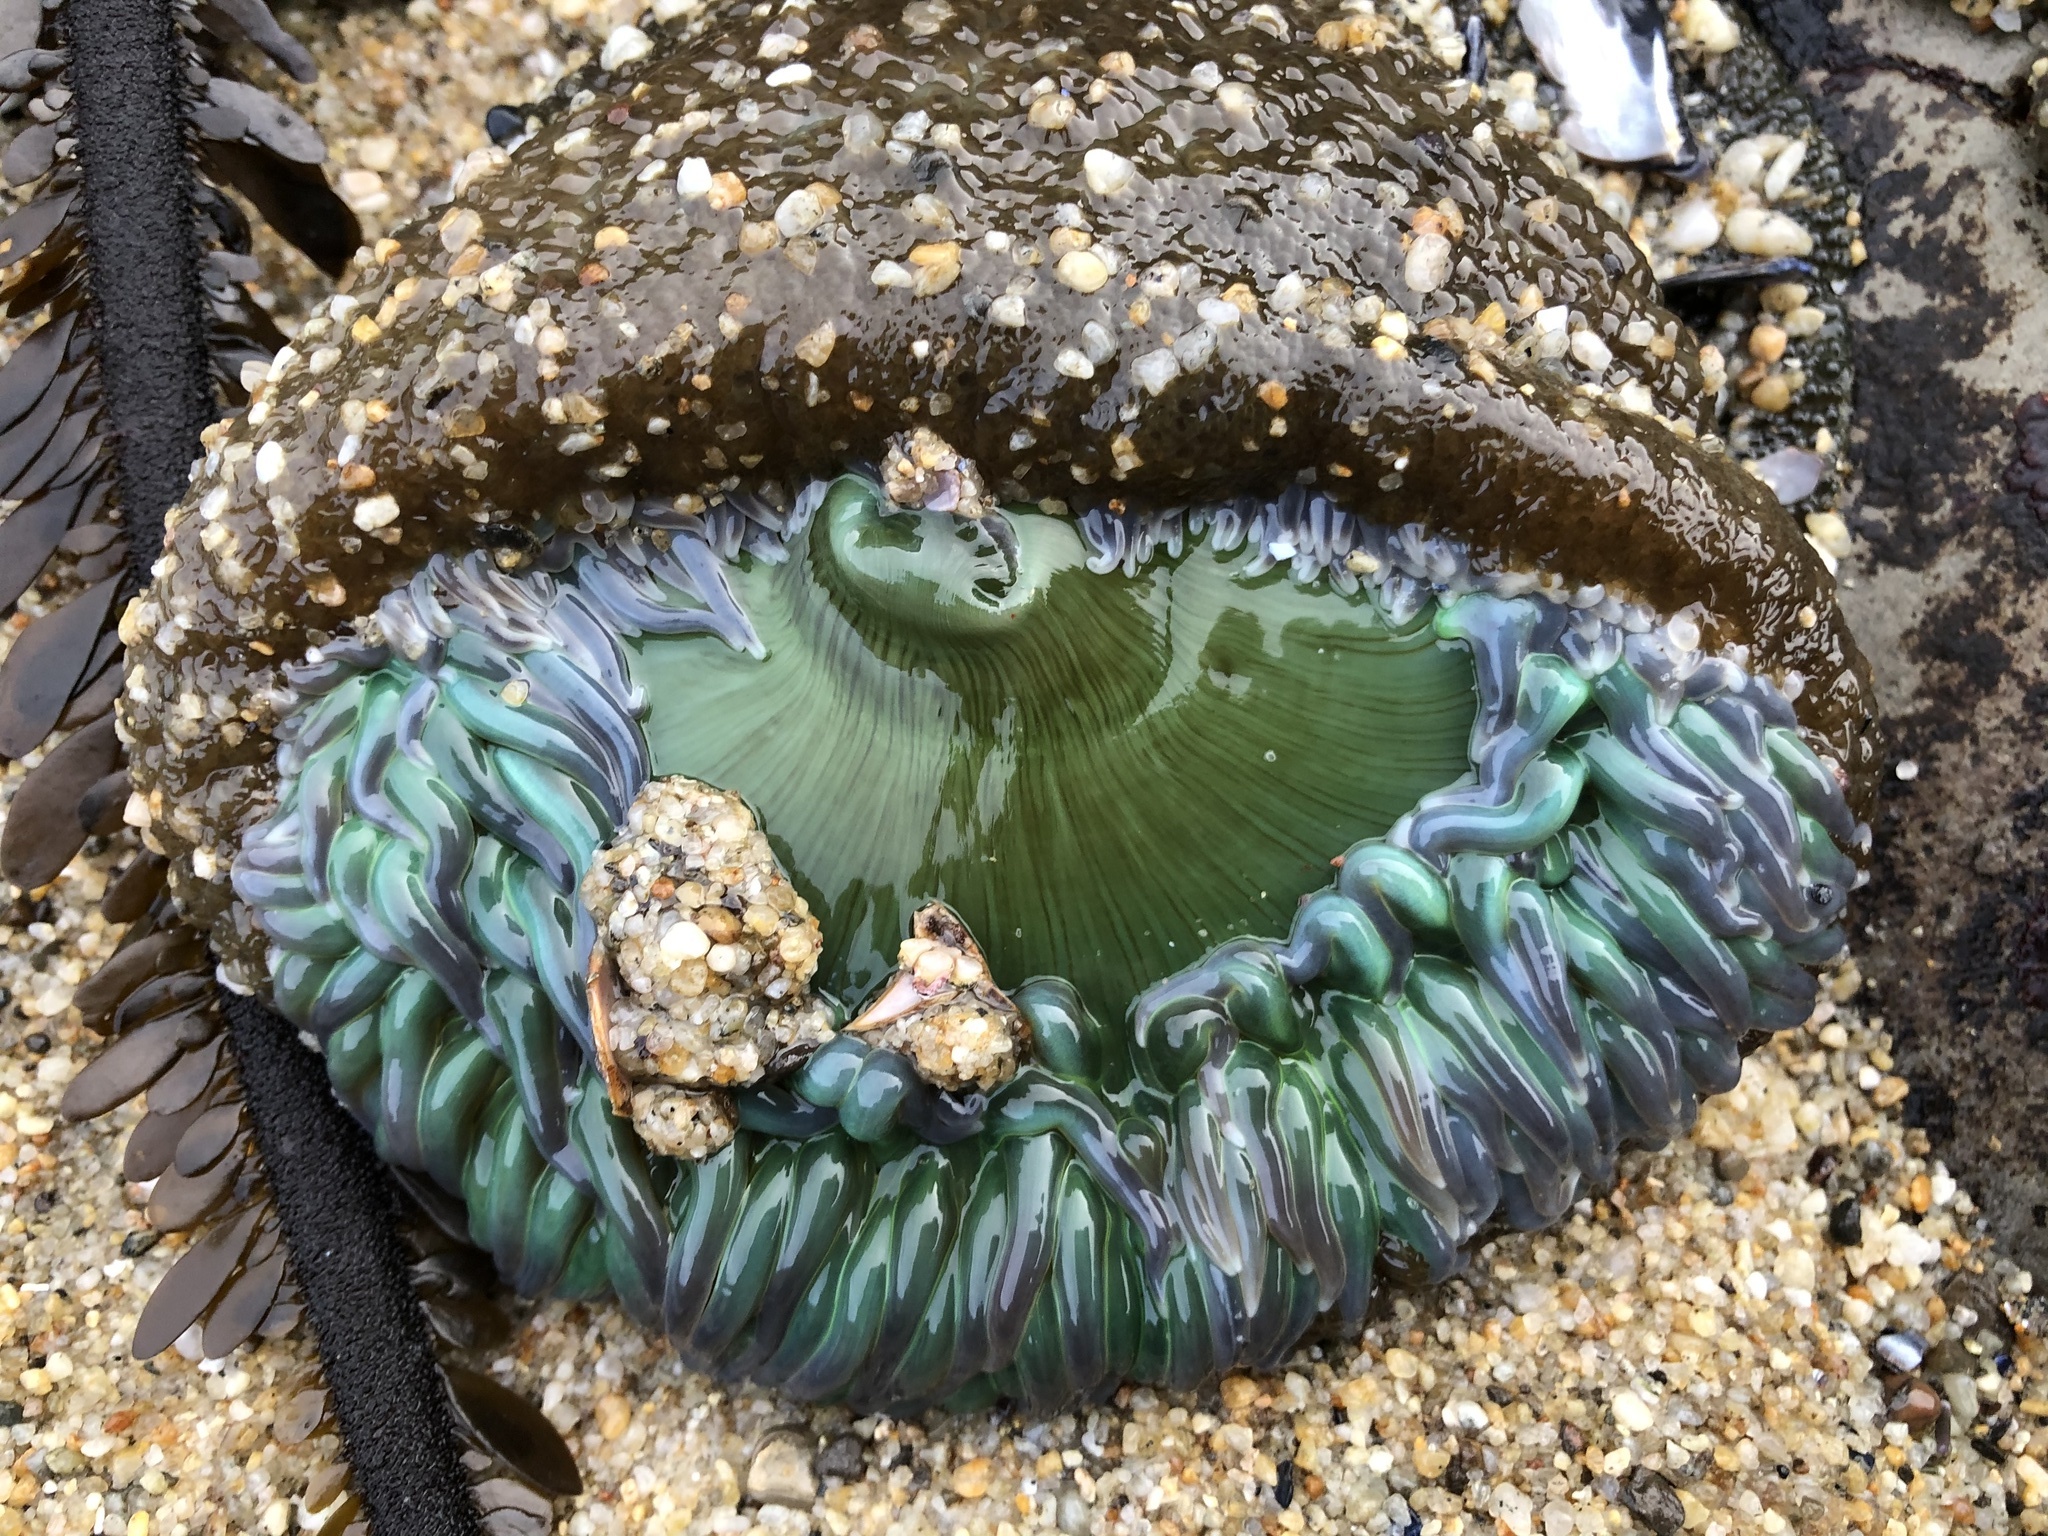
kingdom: Animalia
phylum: Cnidaria
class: Anthozoa
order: Actiniaria
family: Actiniidae
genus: Anthopleura
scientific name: Anthopleura xanthogrammica
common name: Giant green anemone
